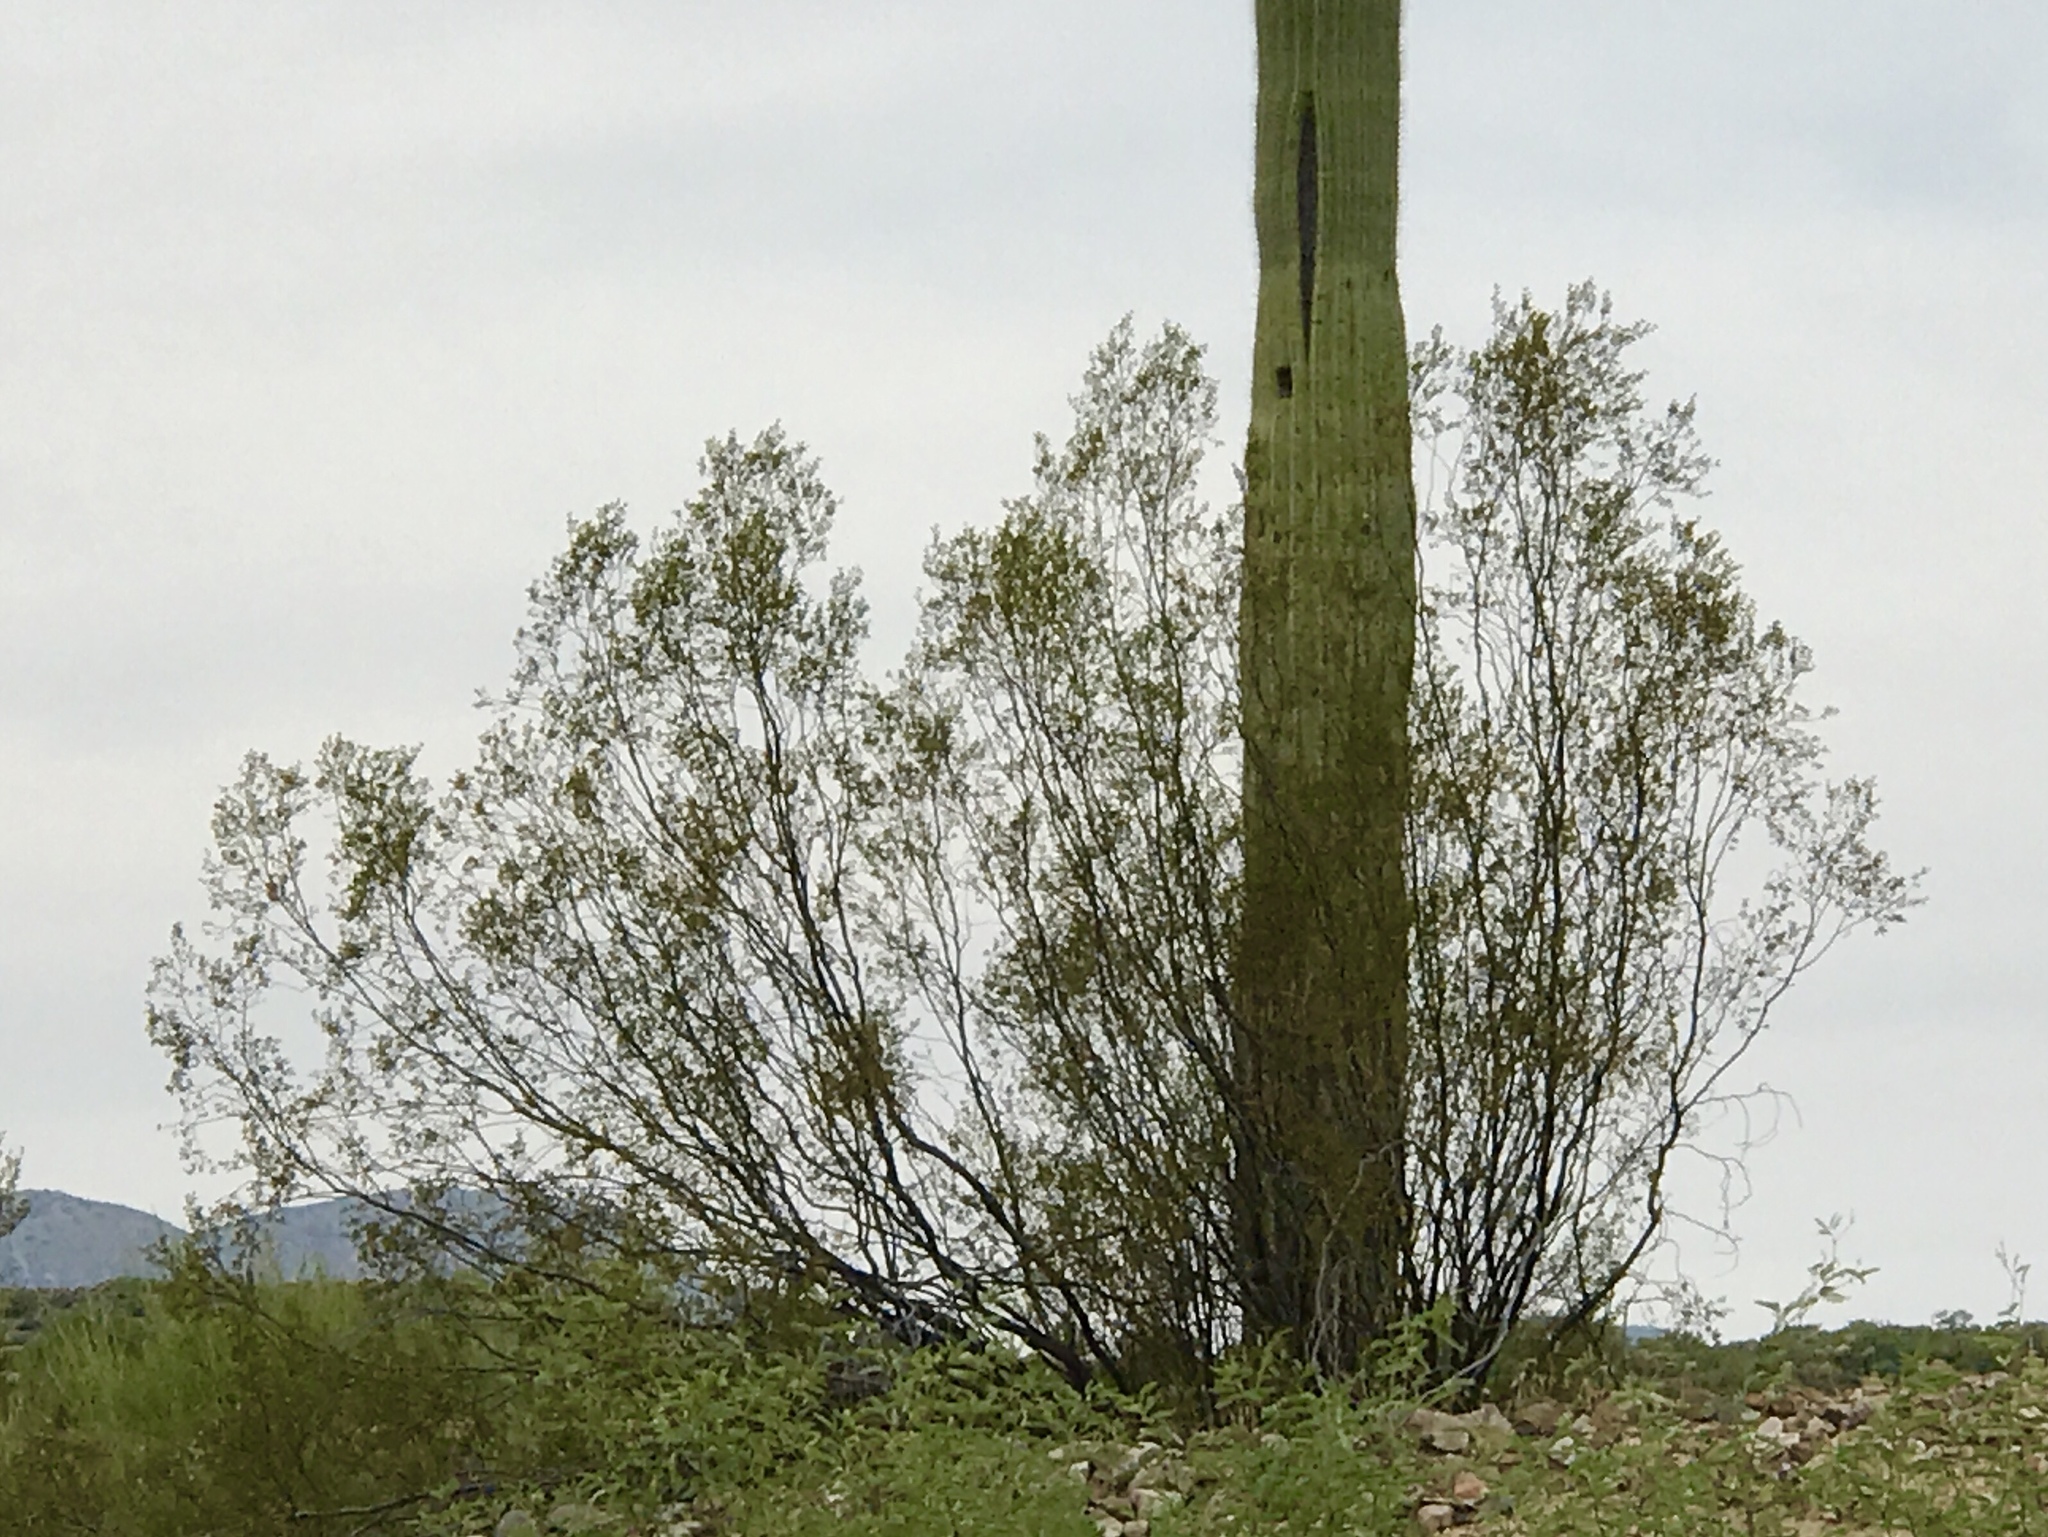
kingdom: Plantae
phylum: Tracheophyta
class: Magnoliopsida
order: Zygophyllales
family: Zygophyllaceae
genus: Larrea
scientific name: Larrea tridentata
